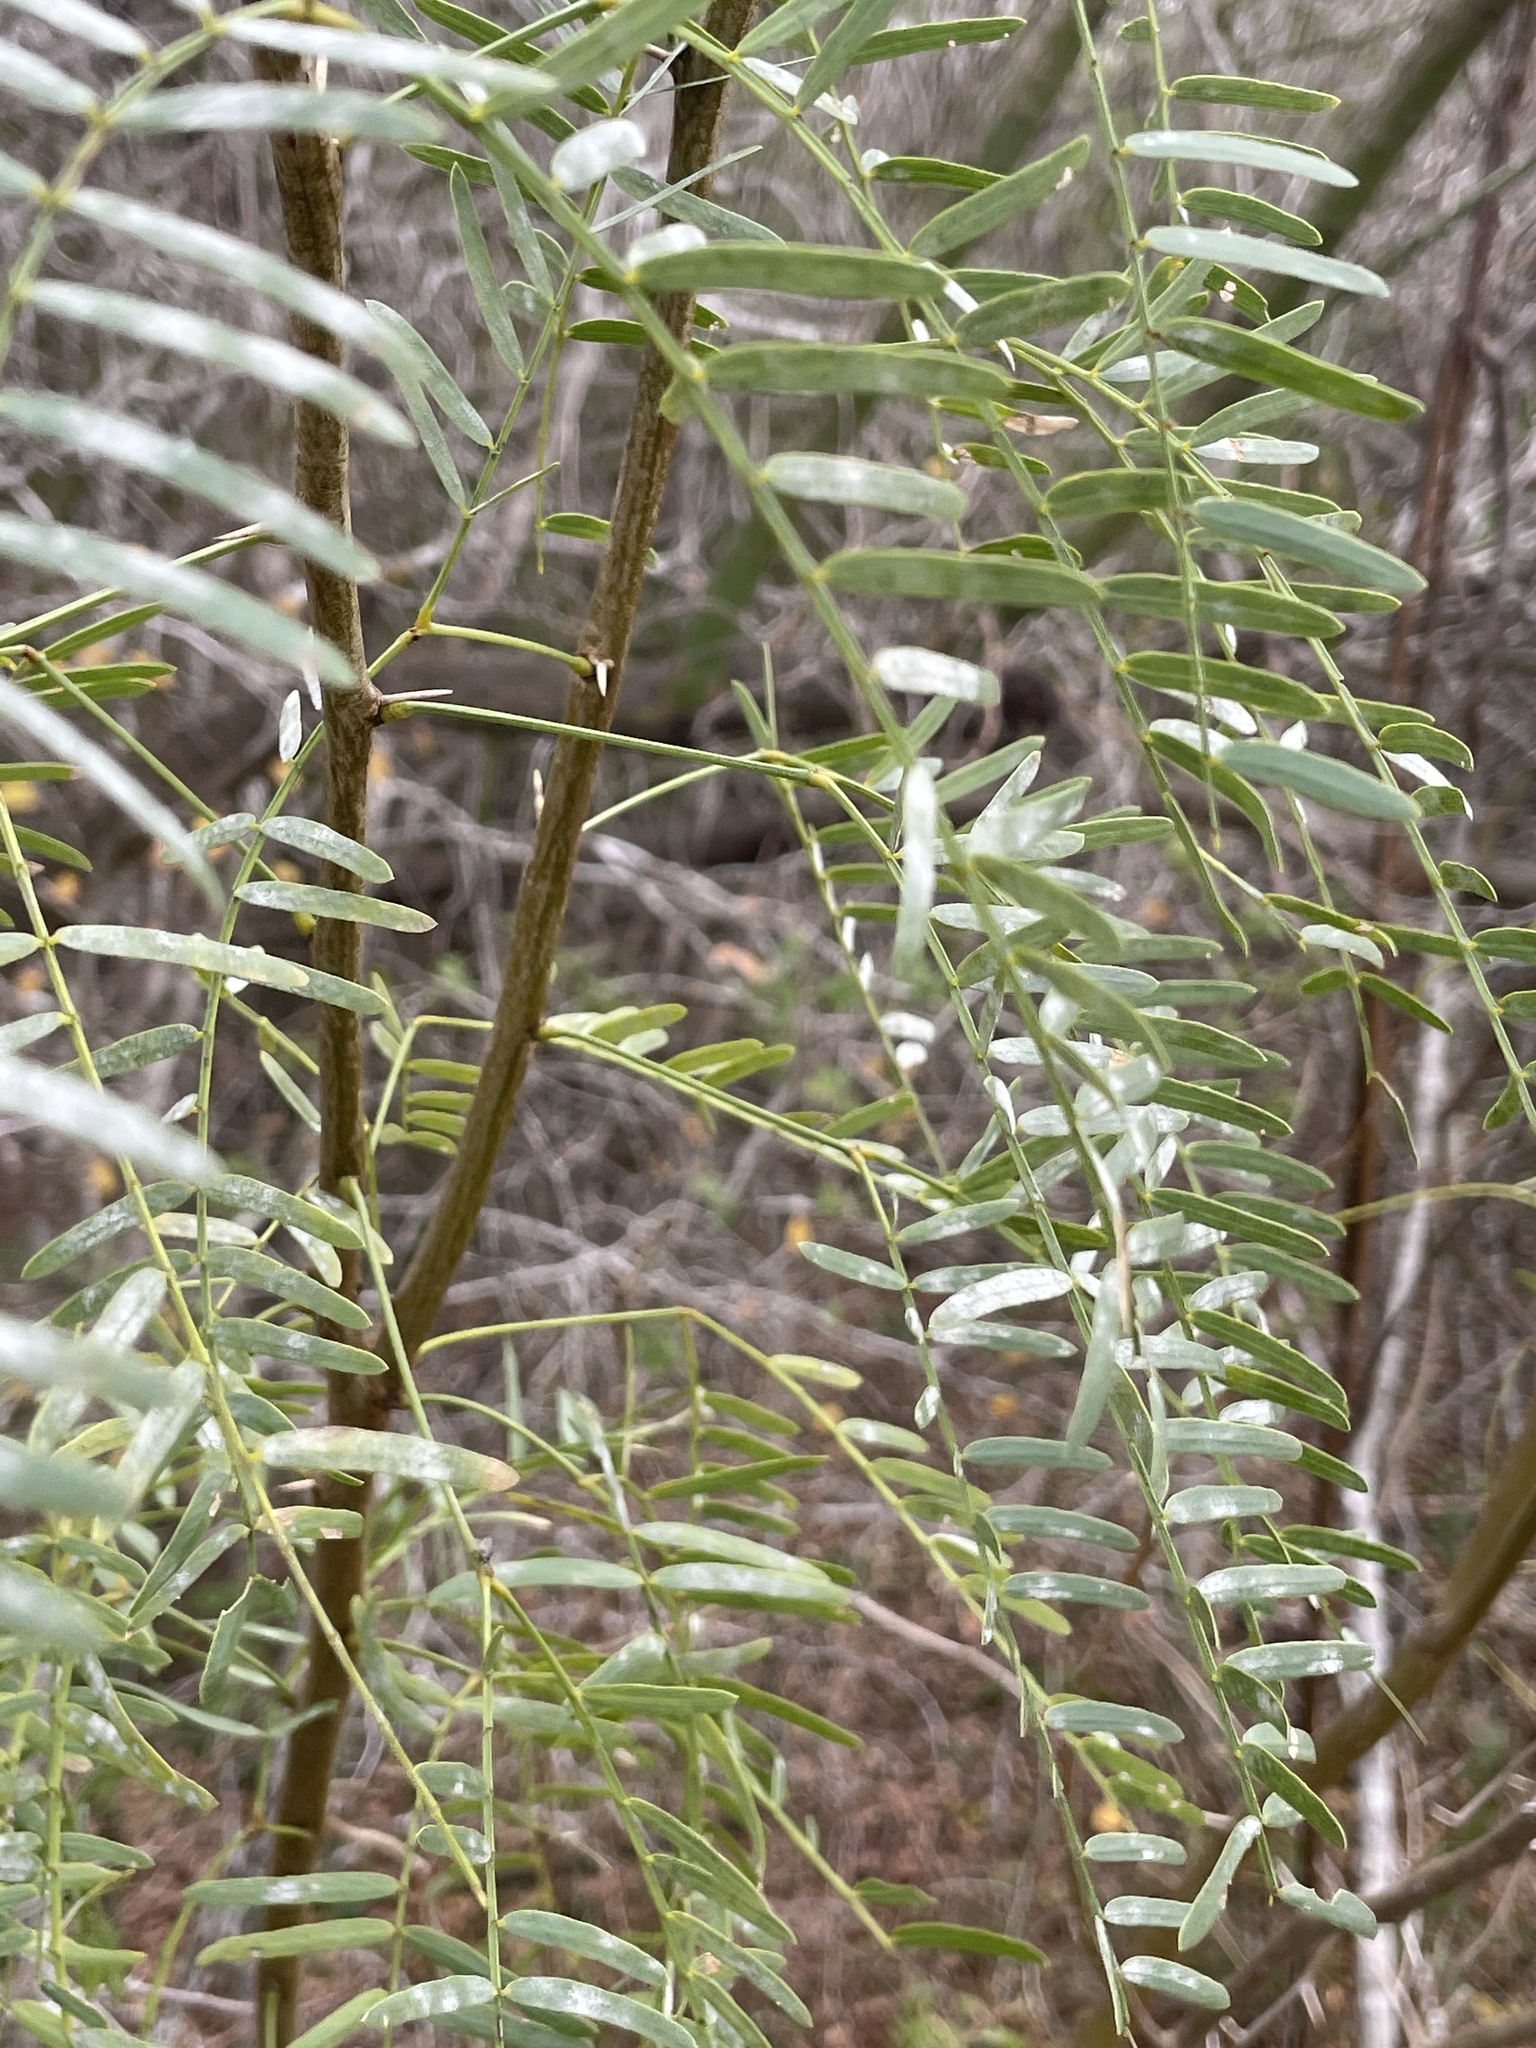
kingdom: Plantae
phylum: Tracheophyta
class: Magnoliopsida
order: Fabales
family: Fabaceae
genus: Prosopis
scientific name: Prosopis glandulosa
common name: Honey mesquite
